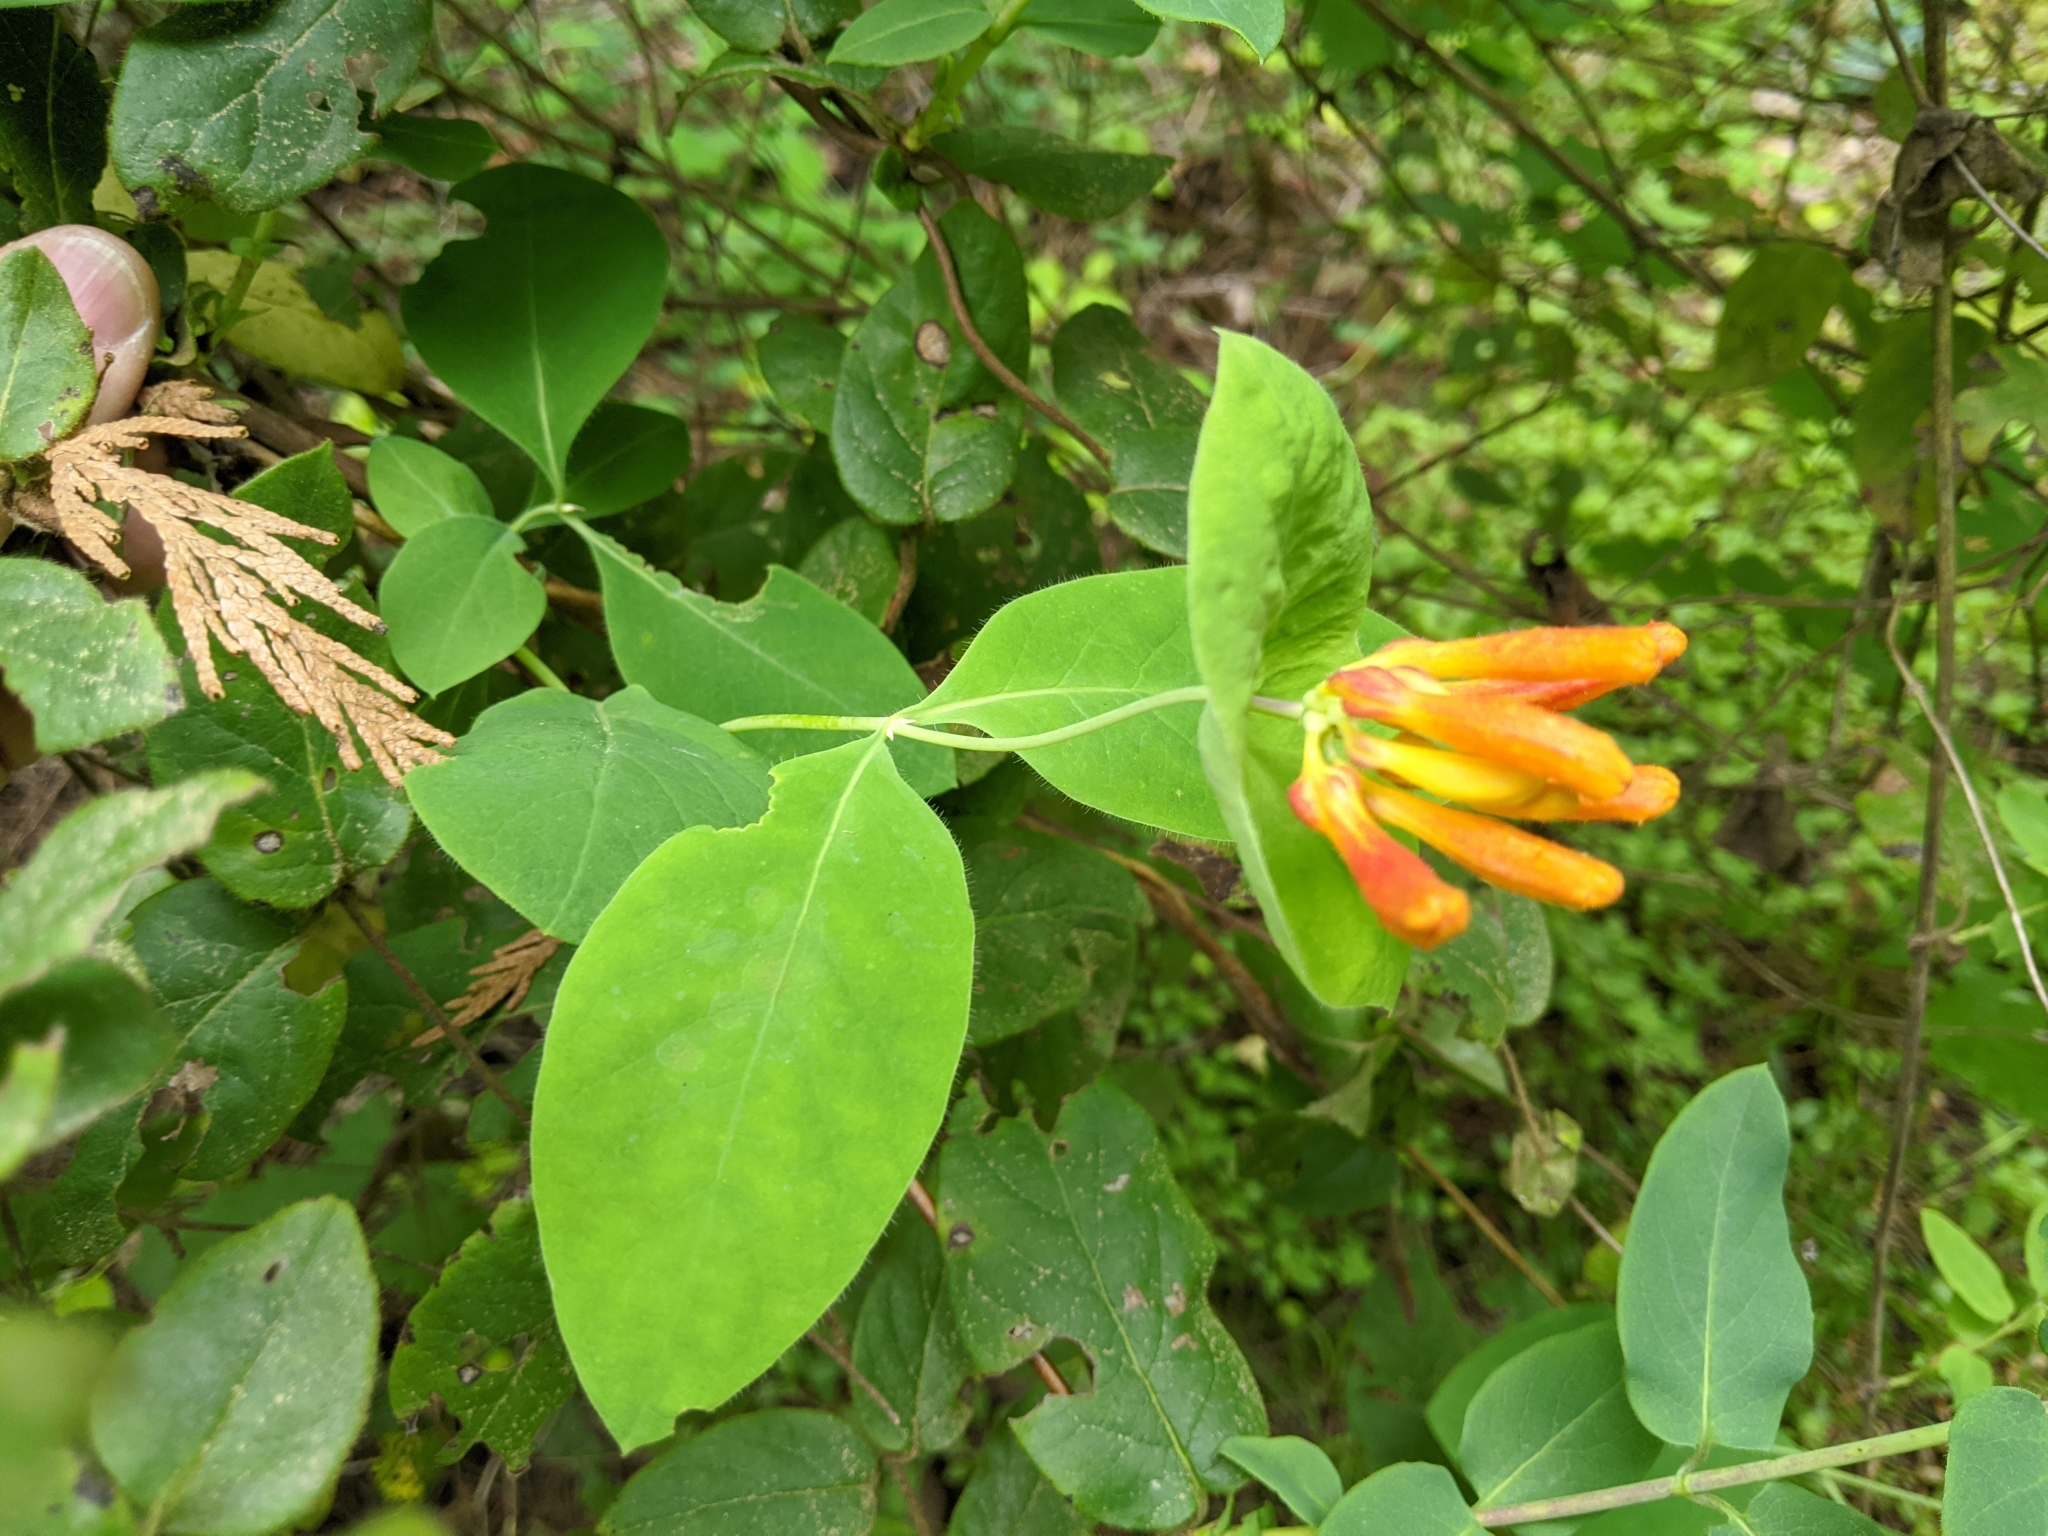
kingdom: Plantae
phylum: Tracheophyta
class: Magnoliopsida
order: Dipsacales
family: Caprifoliaceae
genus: Lonicera
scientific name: Lonicera ciliosa
